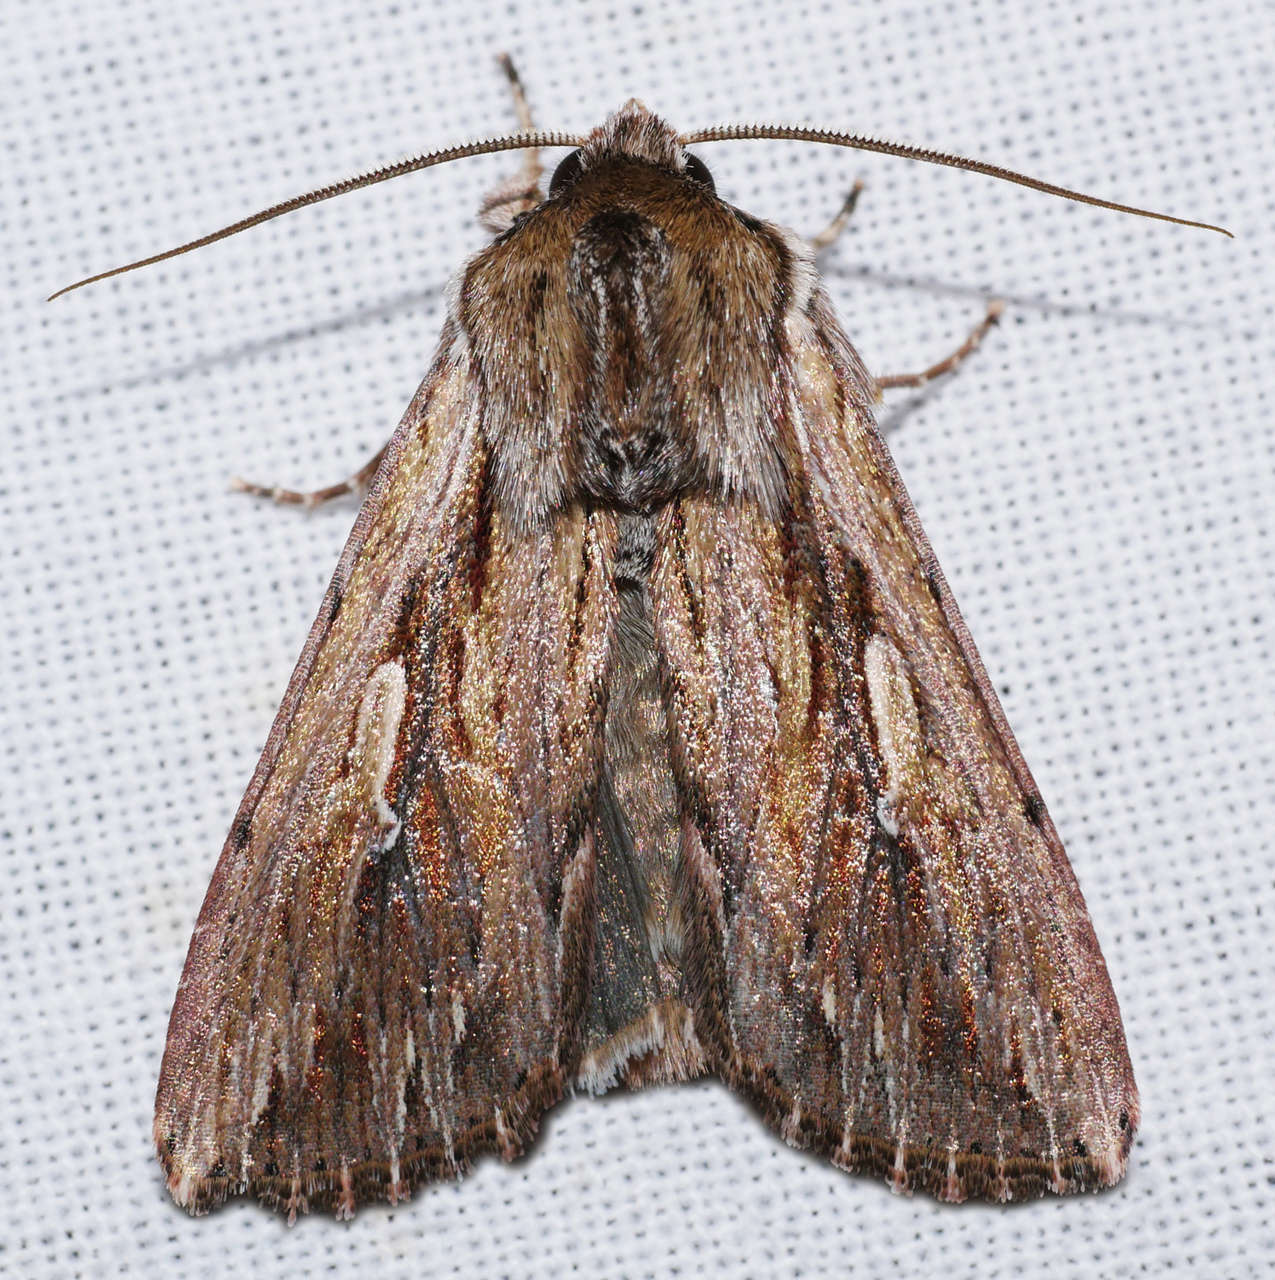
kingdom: Animalia
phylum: Arthropoda
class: Insecta
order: Lepidoptera
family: Noctuidae
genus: Persectania
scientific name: Persectania ewingii
